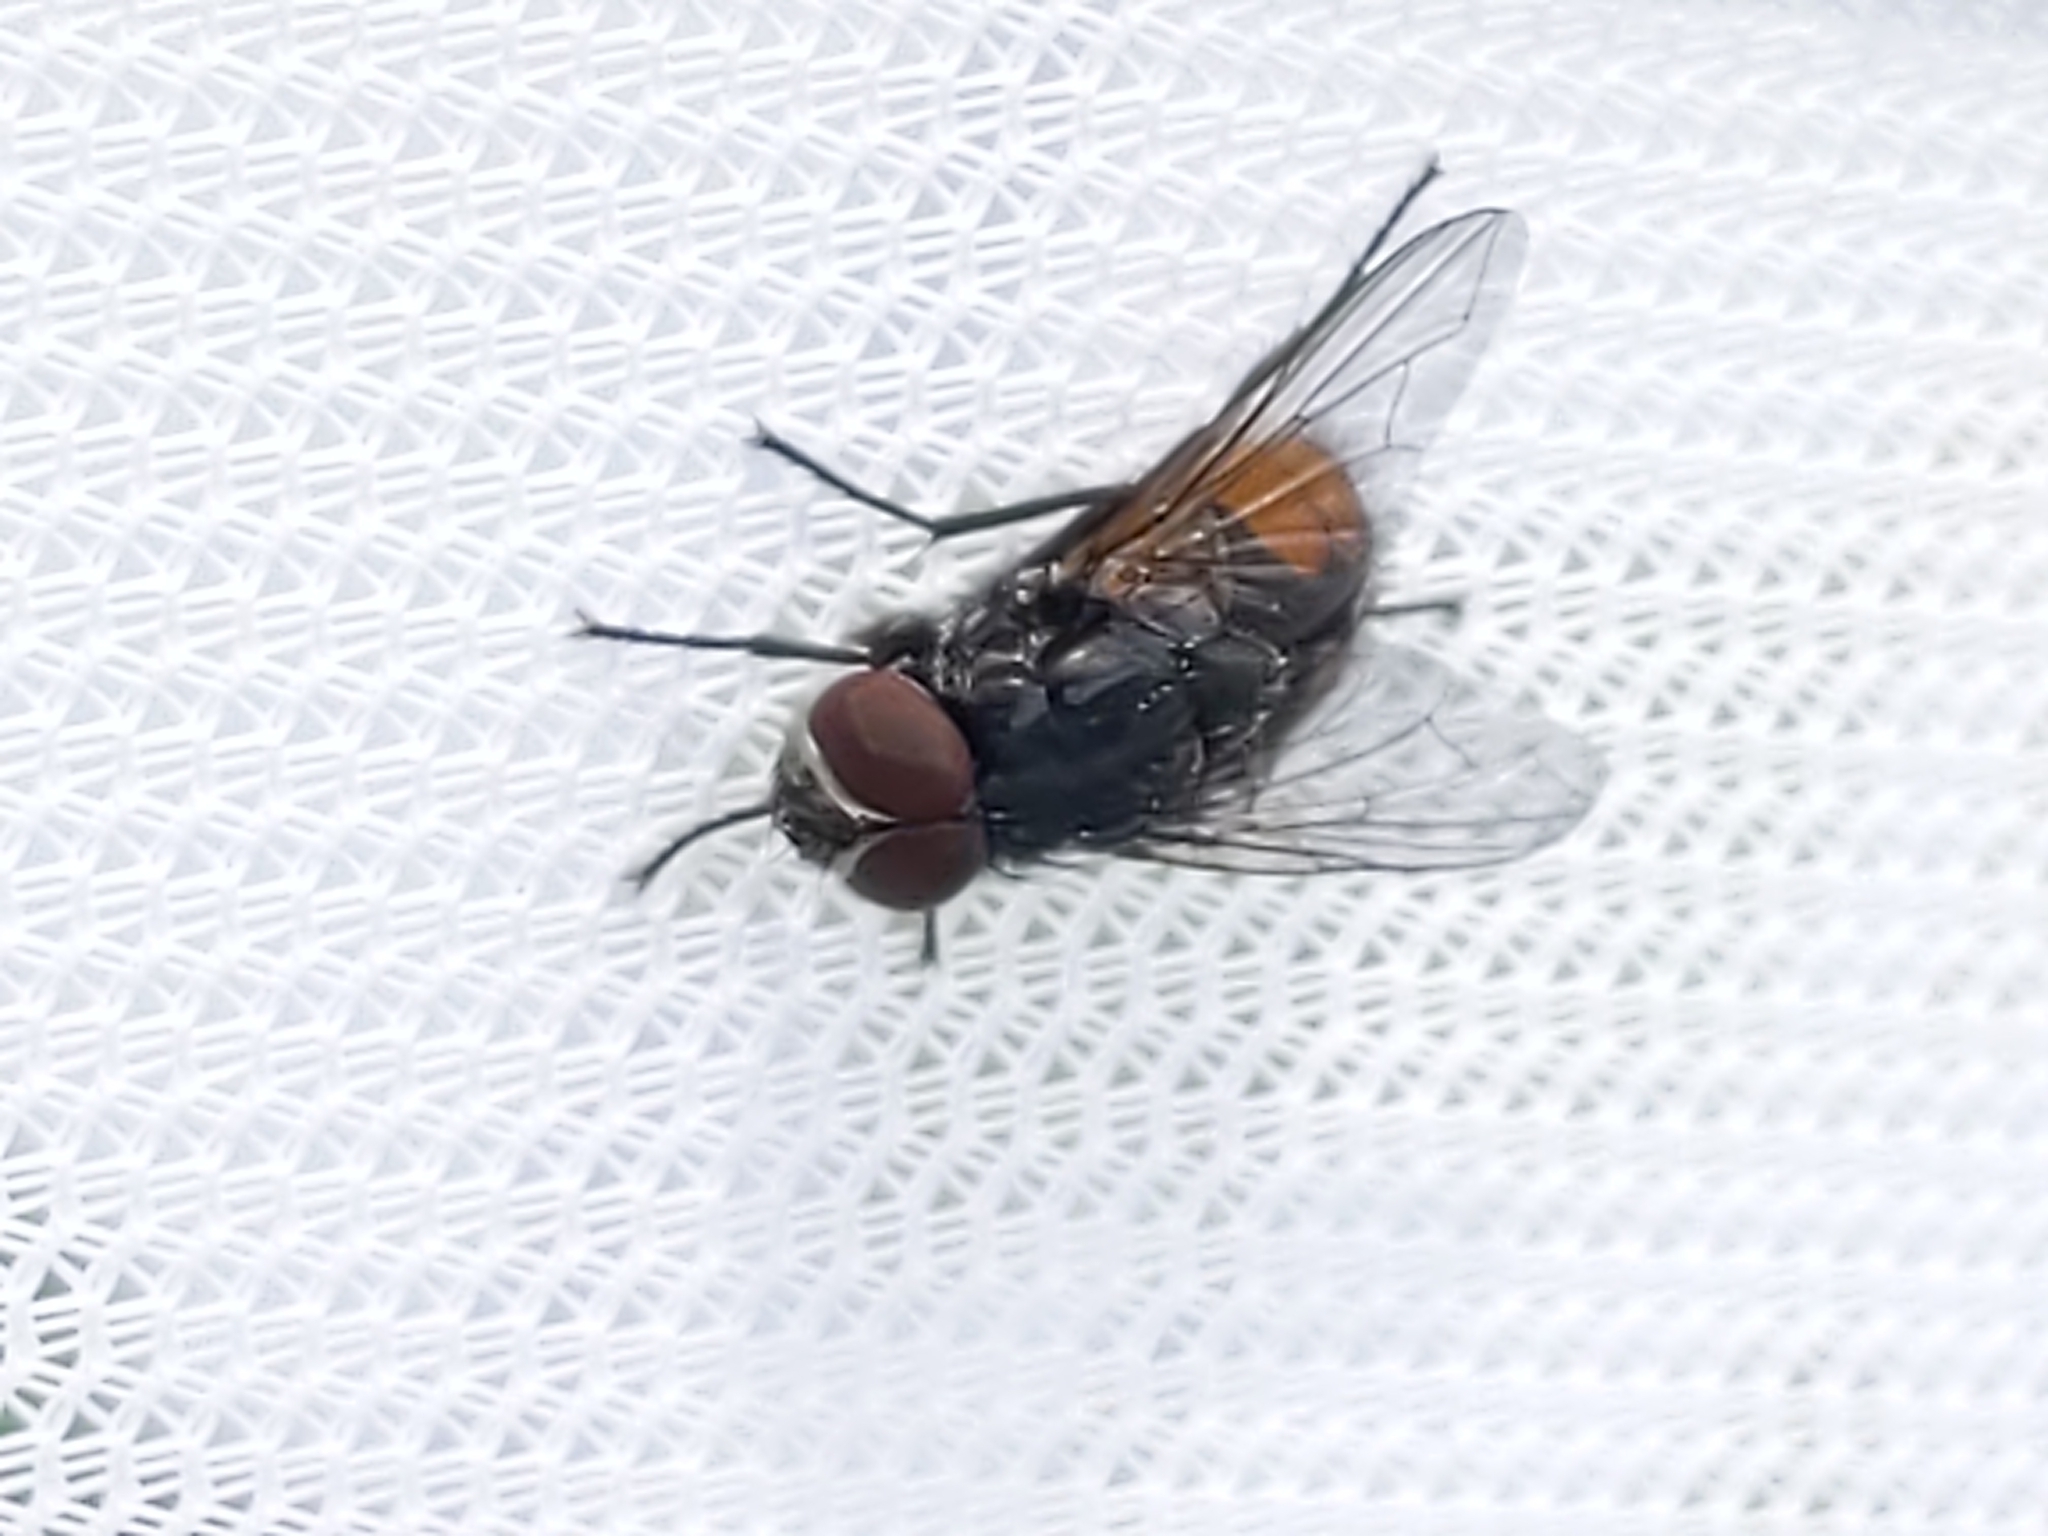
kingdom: Animalia
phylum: Arthropoda
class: Insecta
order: Diptera
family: Muscidae
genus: Musca
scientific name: Musca autumnalis
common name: Face fly
